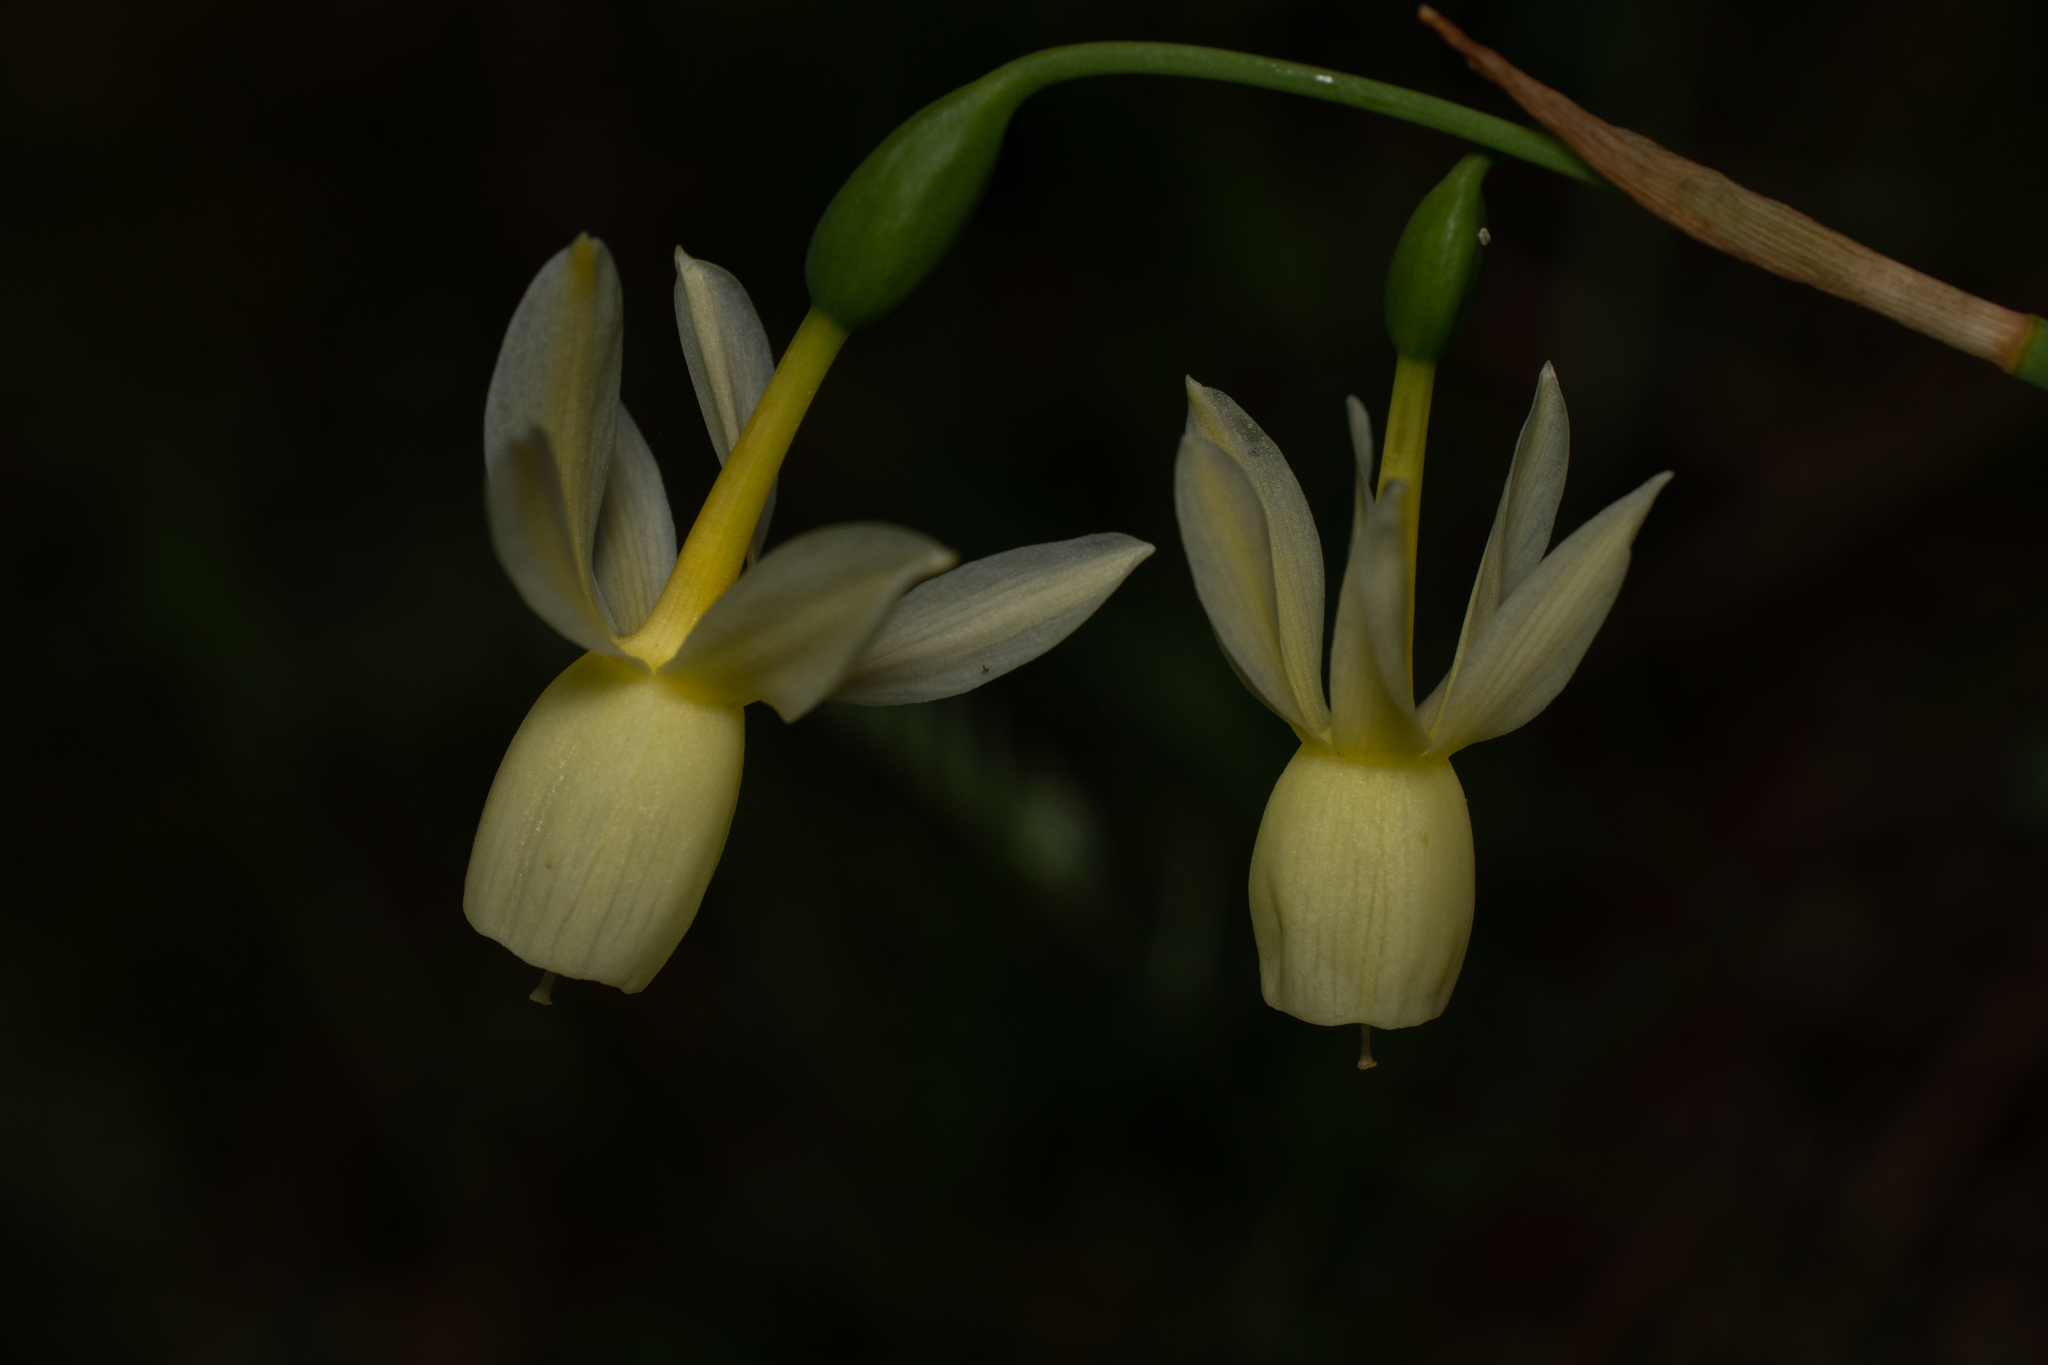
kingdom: Plantae
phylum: Tracheophyta
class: Liliopsida
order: Asparagales
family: Amaryllidaceae
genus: Narcissus
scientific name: Narcissus triandrus
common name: Angel's-tears
